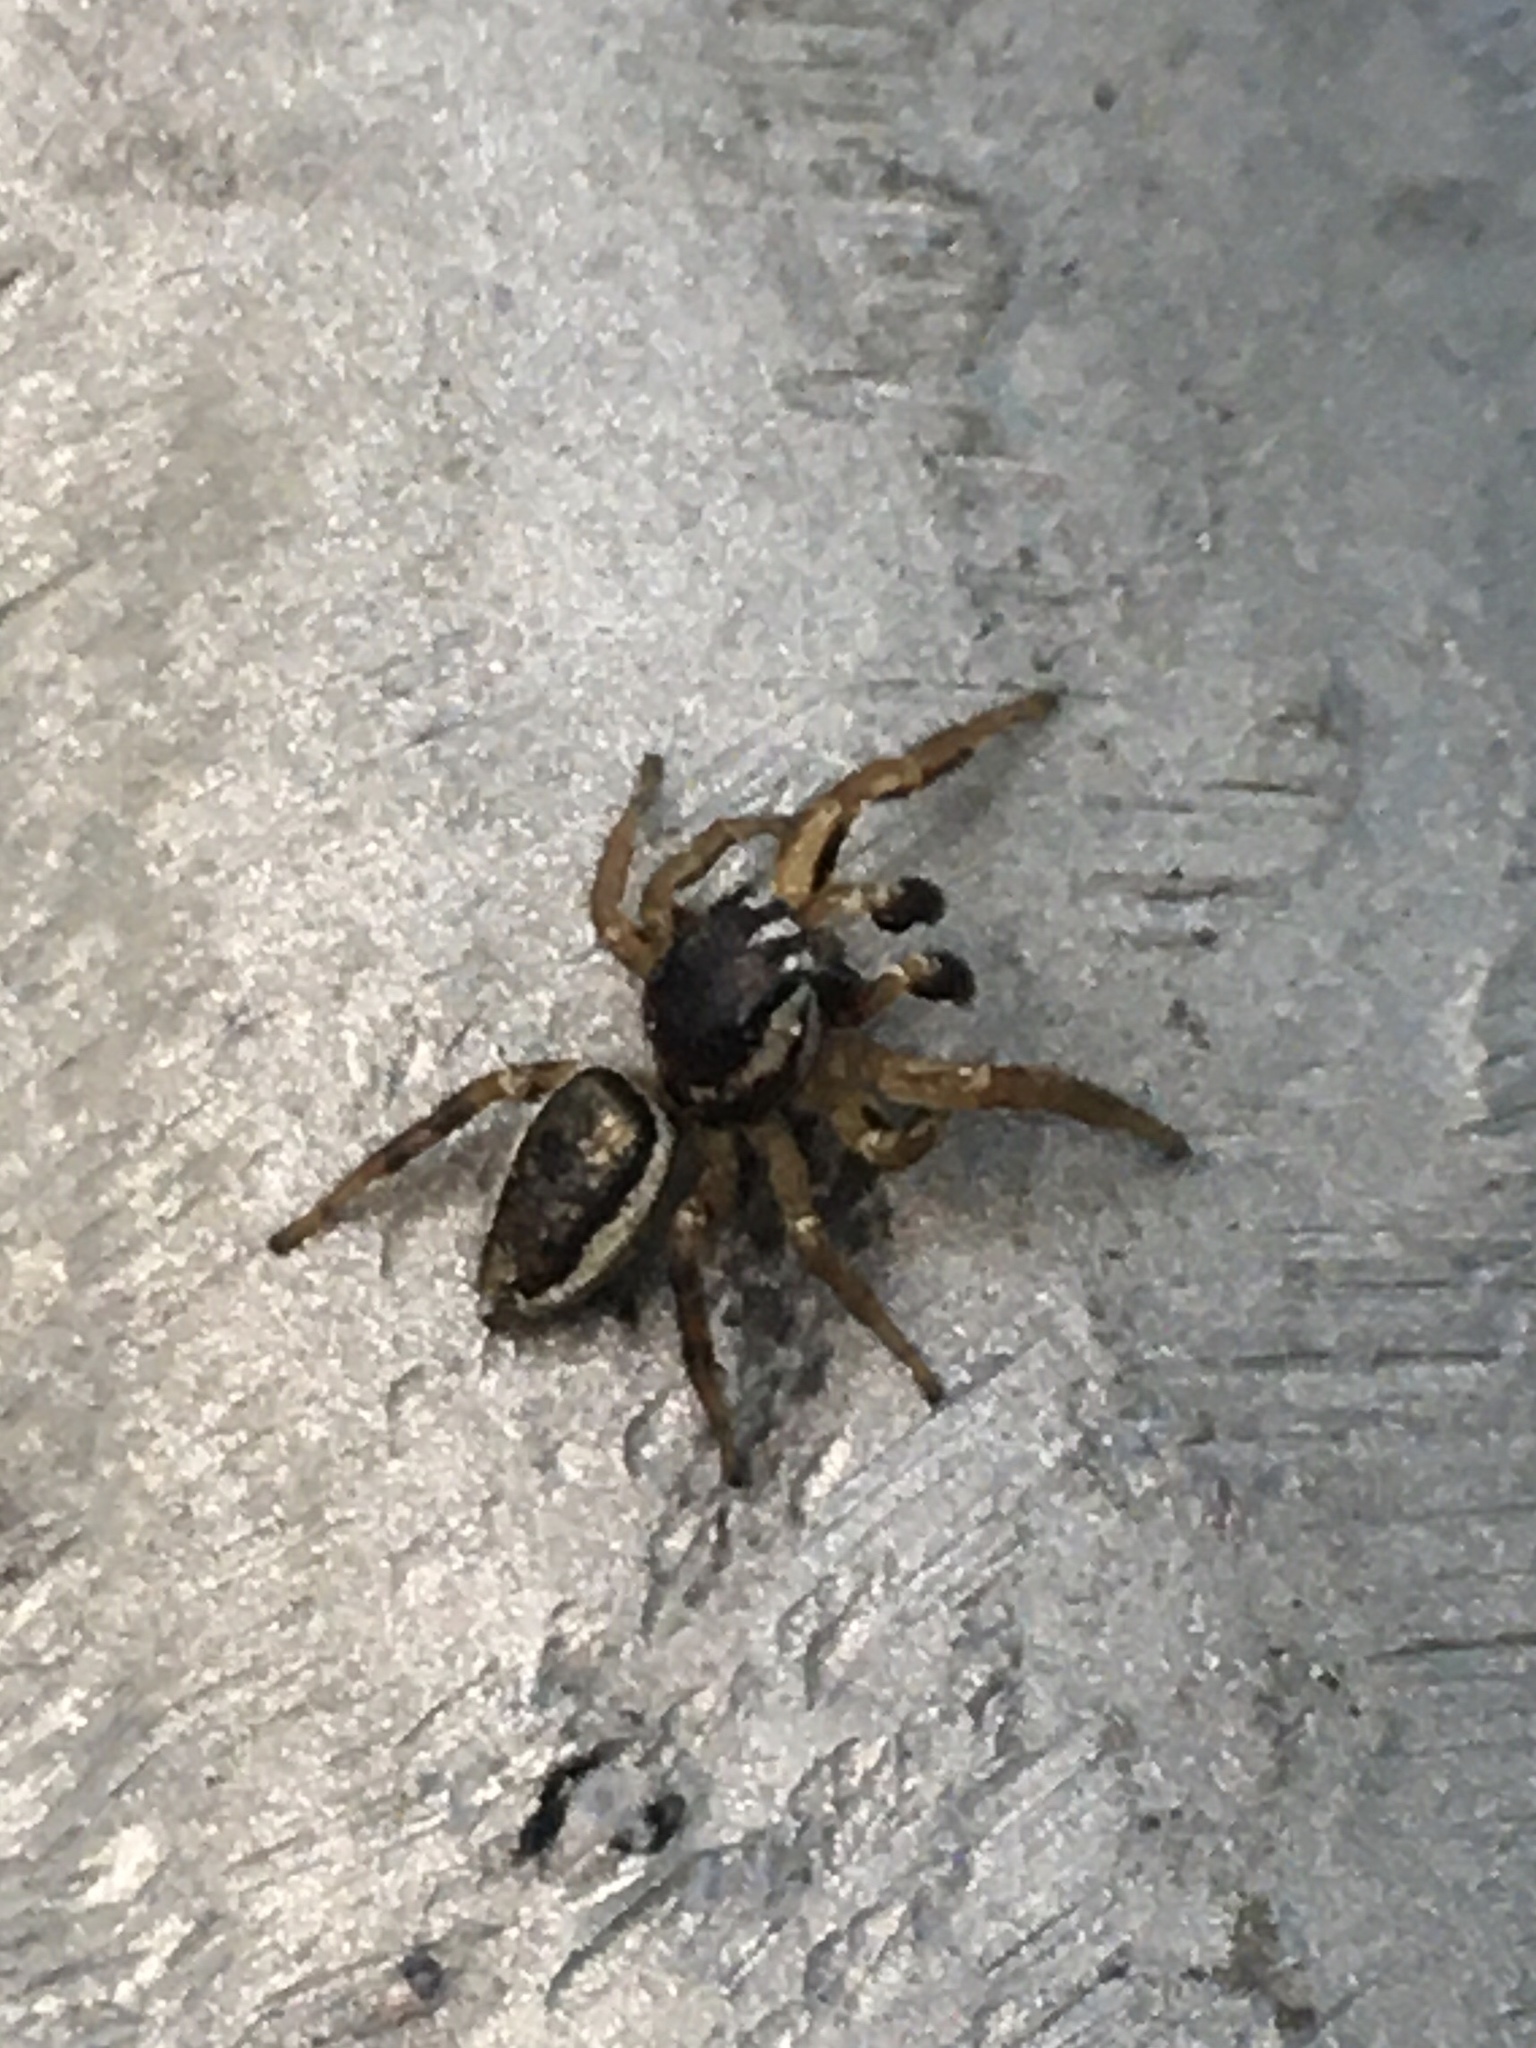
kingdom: Animalia
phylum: Arthropoda
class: Arachnida
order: Araneae
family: Salticidae
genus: Pelegrina
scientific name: Pelegrina flavipes
